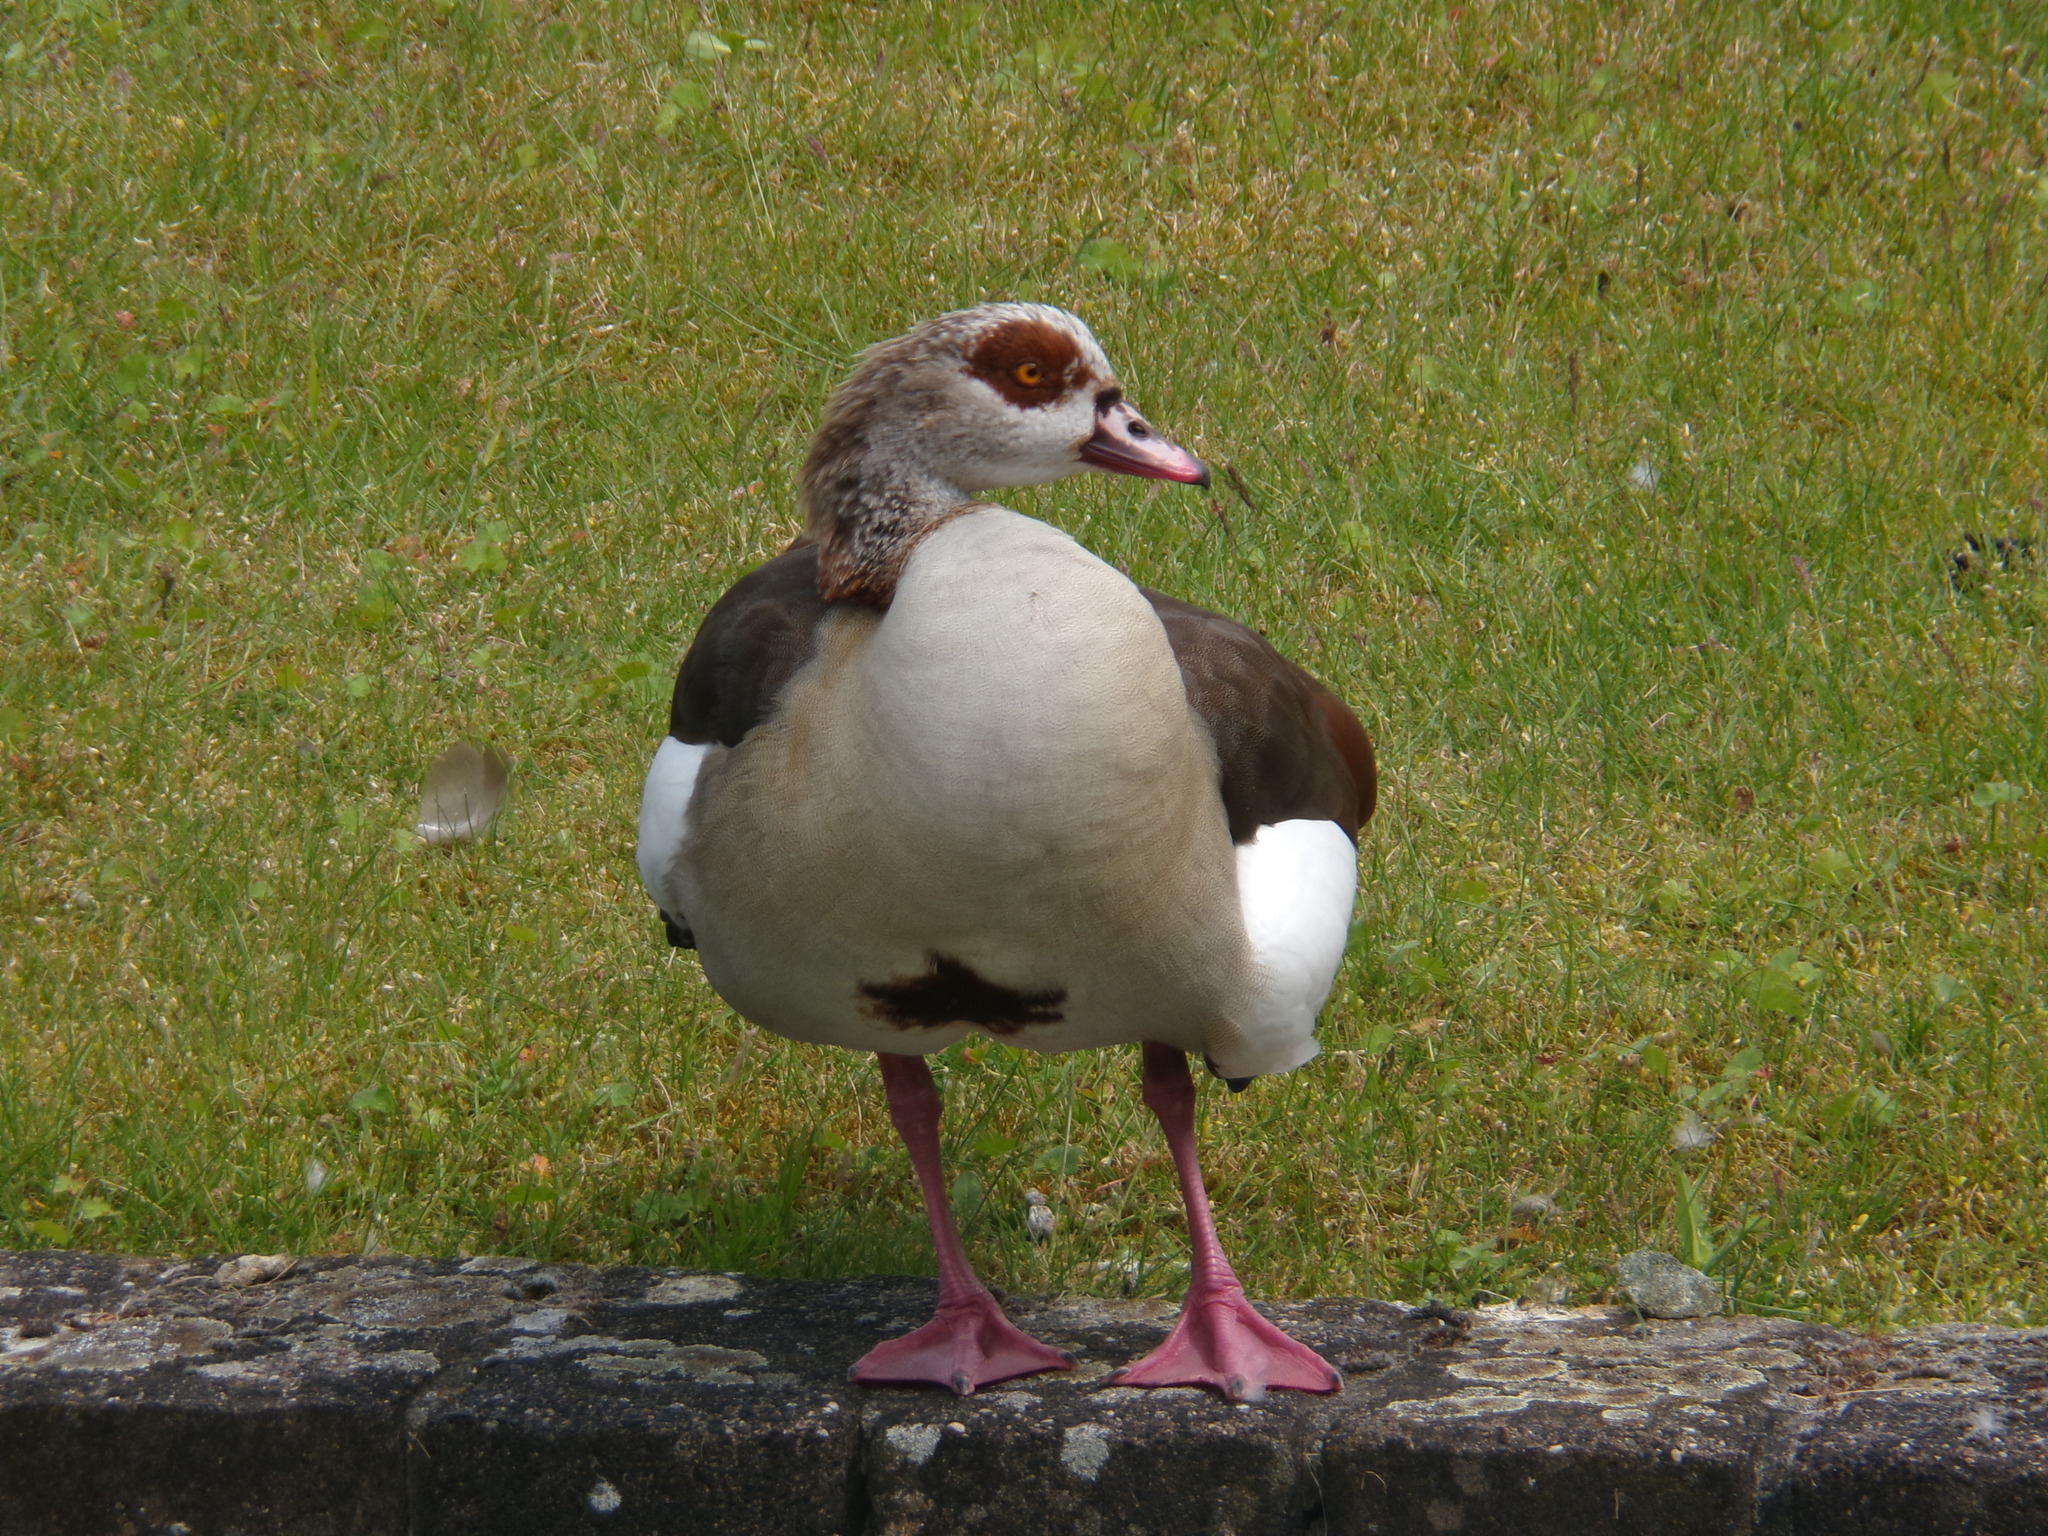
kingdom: Animalia
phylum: Chordata
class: Aves
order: Anseriformes
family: Anatidae
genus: Alopochen
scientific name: Alopochen aegyptiaca
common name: Egyptian goose
